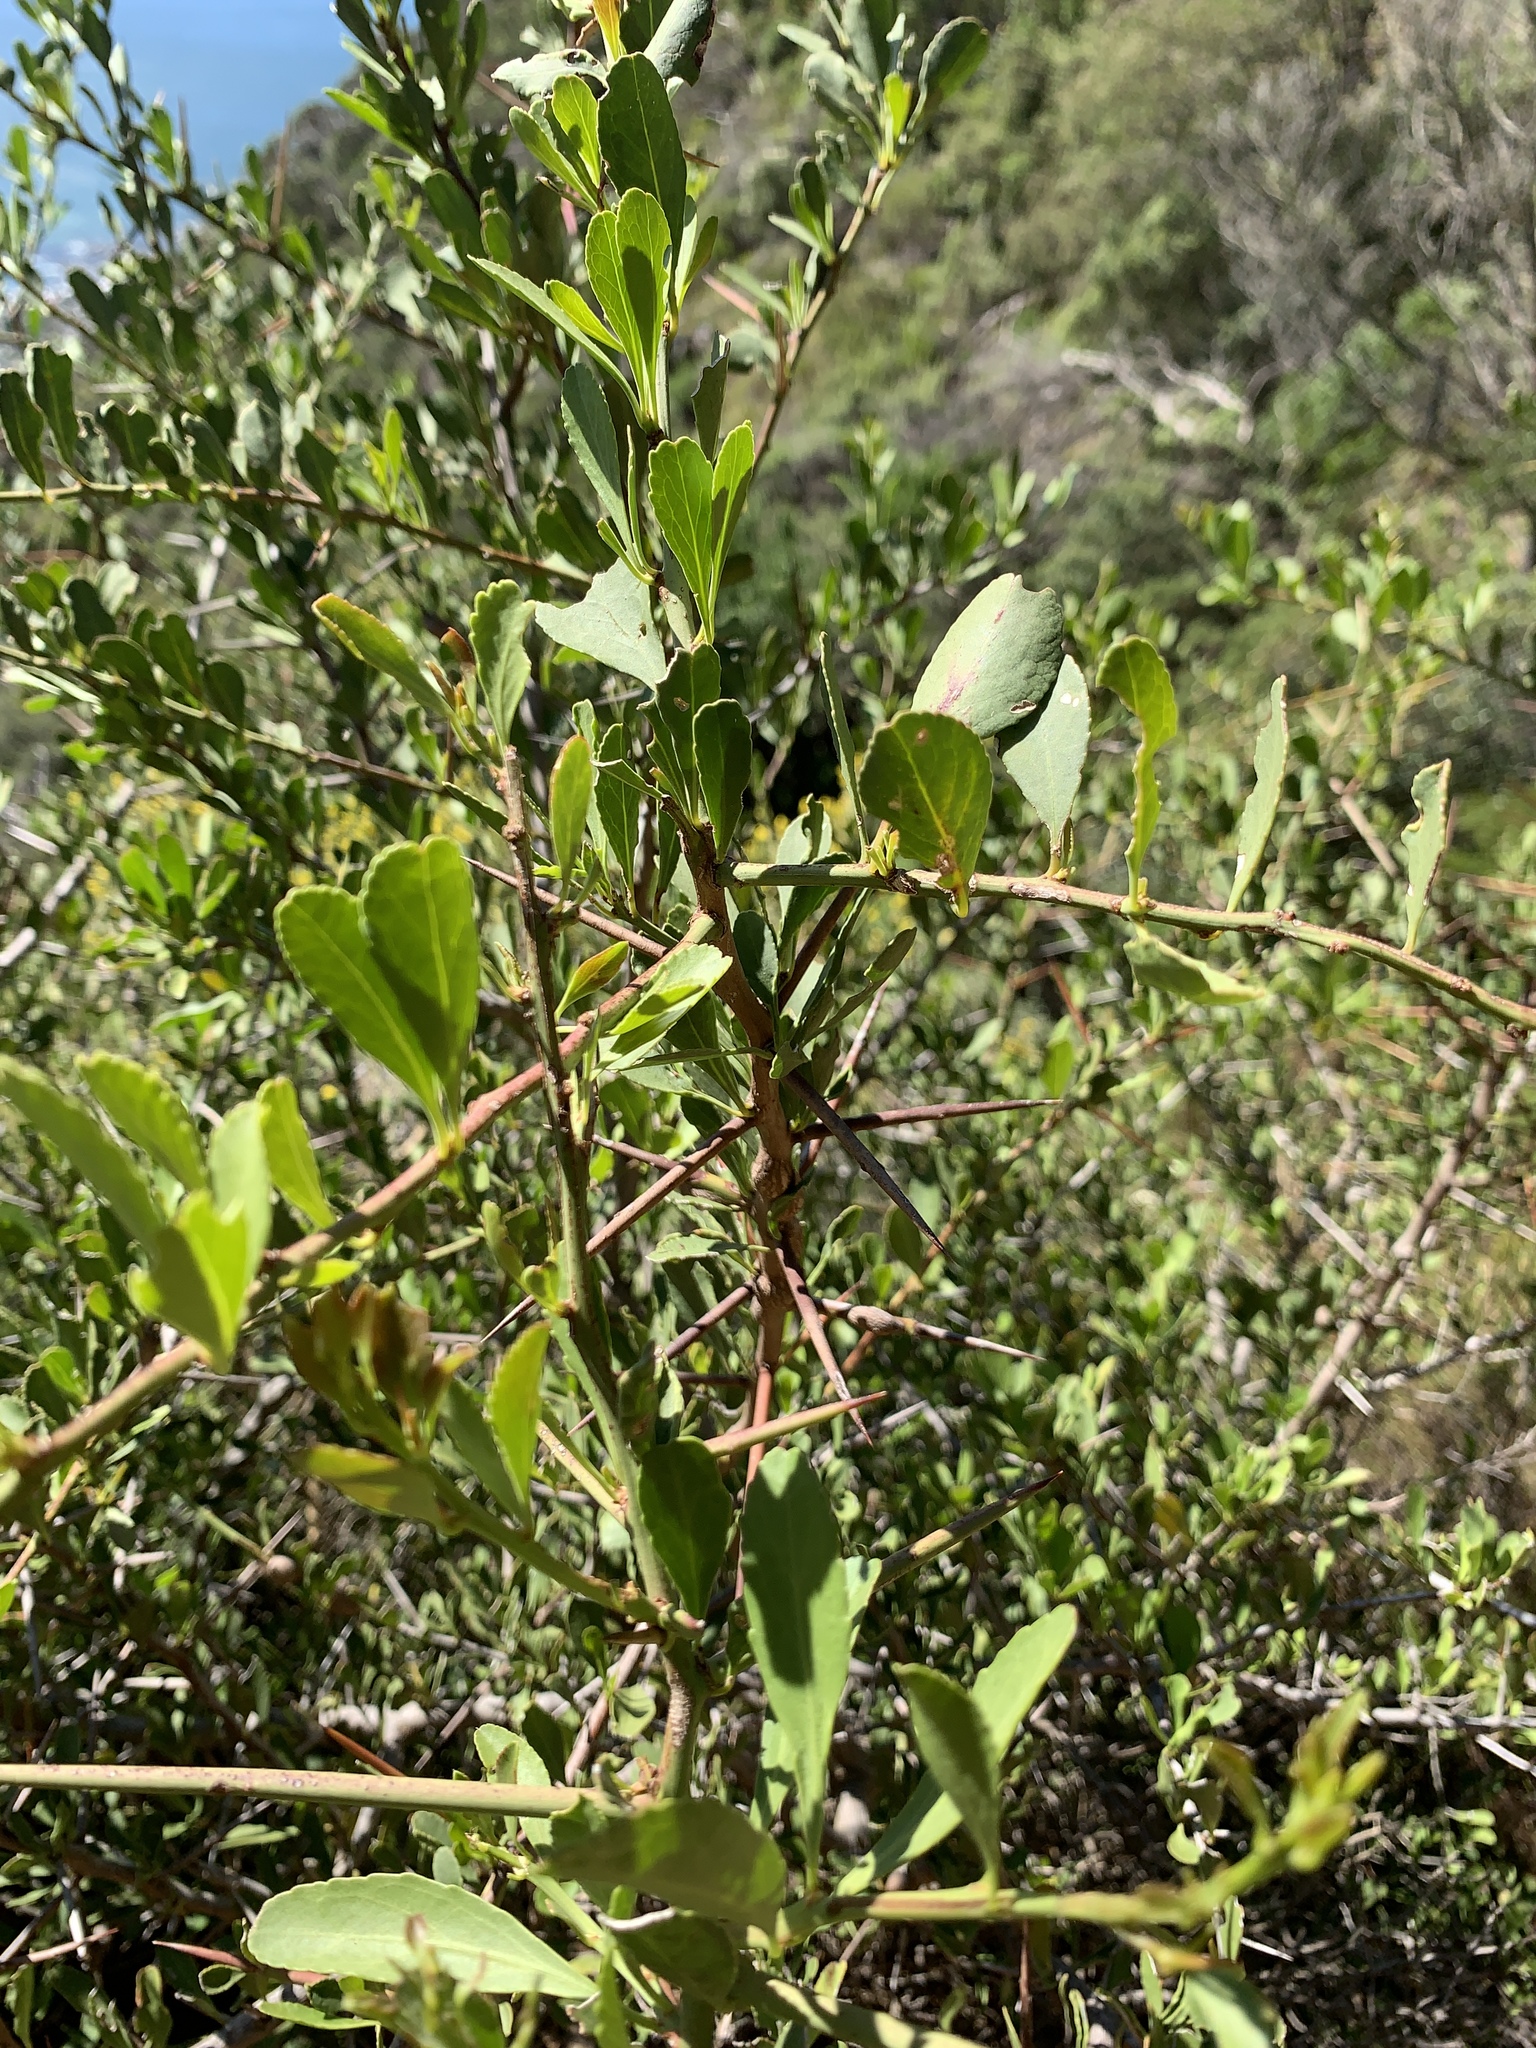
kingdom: Plantae
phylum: Tracheophyta
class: Magnoliopsida
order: Celastrales
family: Celastraceae
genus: Gymnosporia
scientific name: Gymnosporia buxifolia
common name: Common spike-thorn
